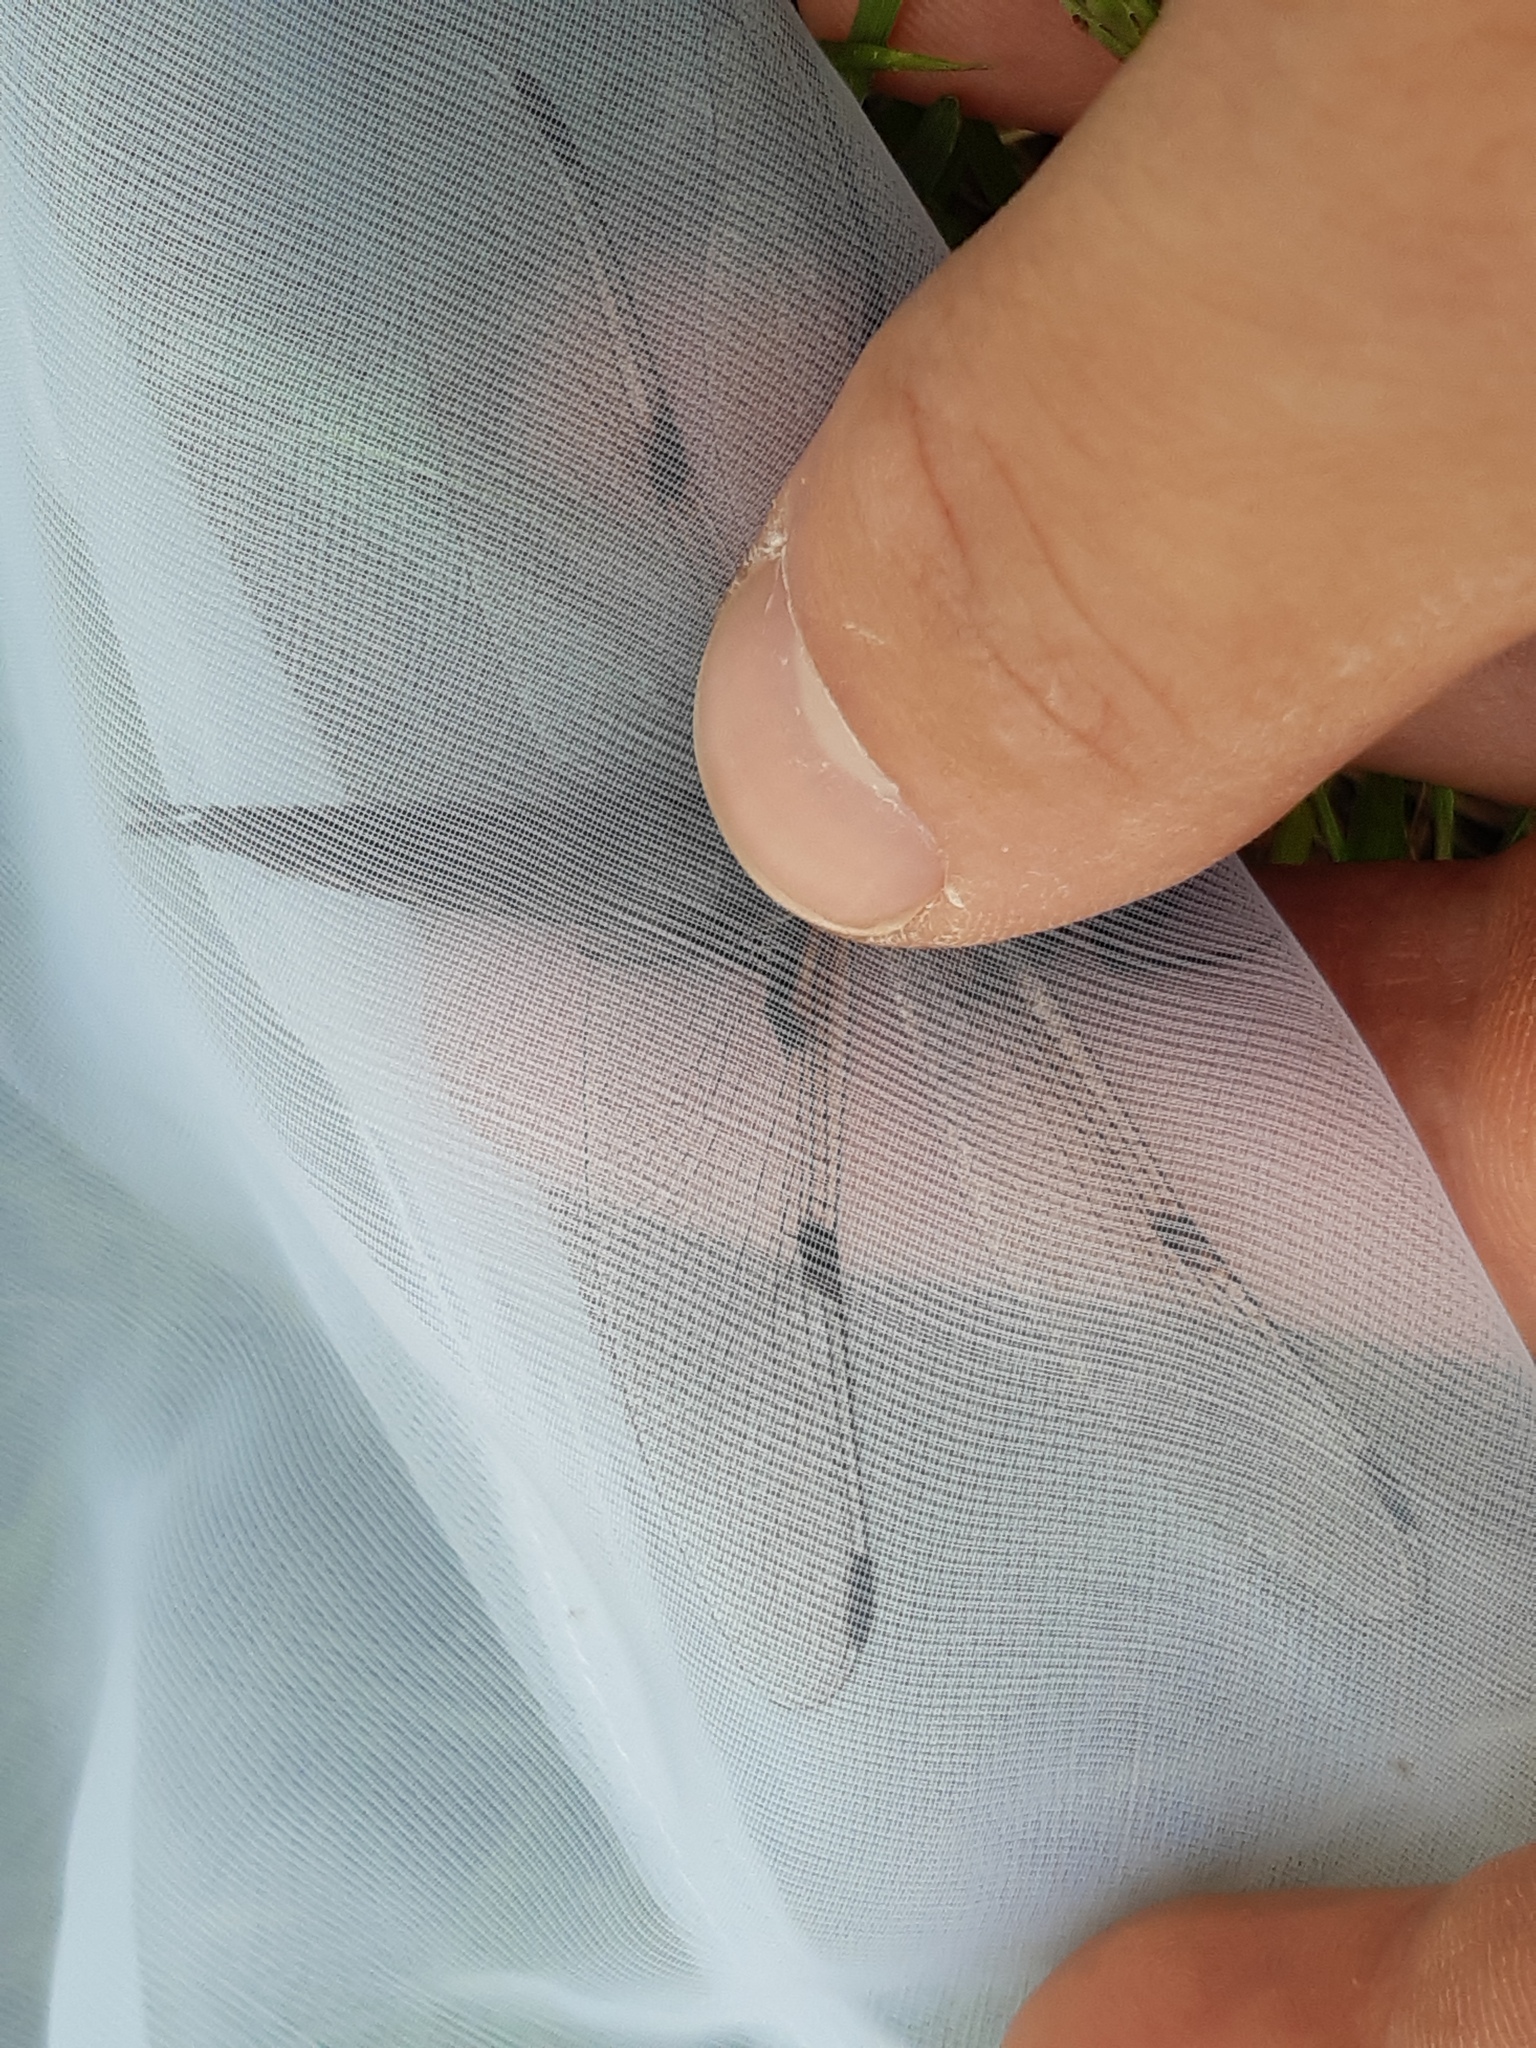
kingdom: Animalia
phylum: Arthropoda
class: Insecta
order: Odonata
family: Libellulidae
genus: Libellula
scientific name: Libellula quadrimaculata
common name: Four-spotted chaser
